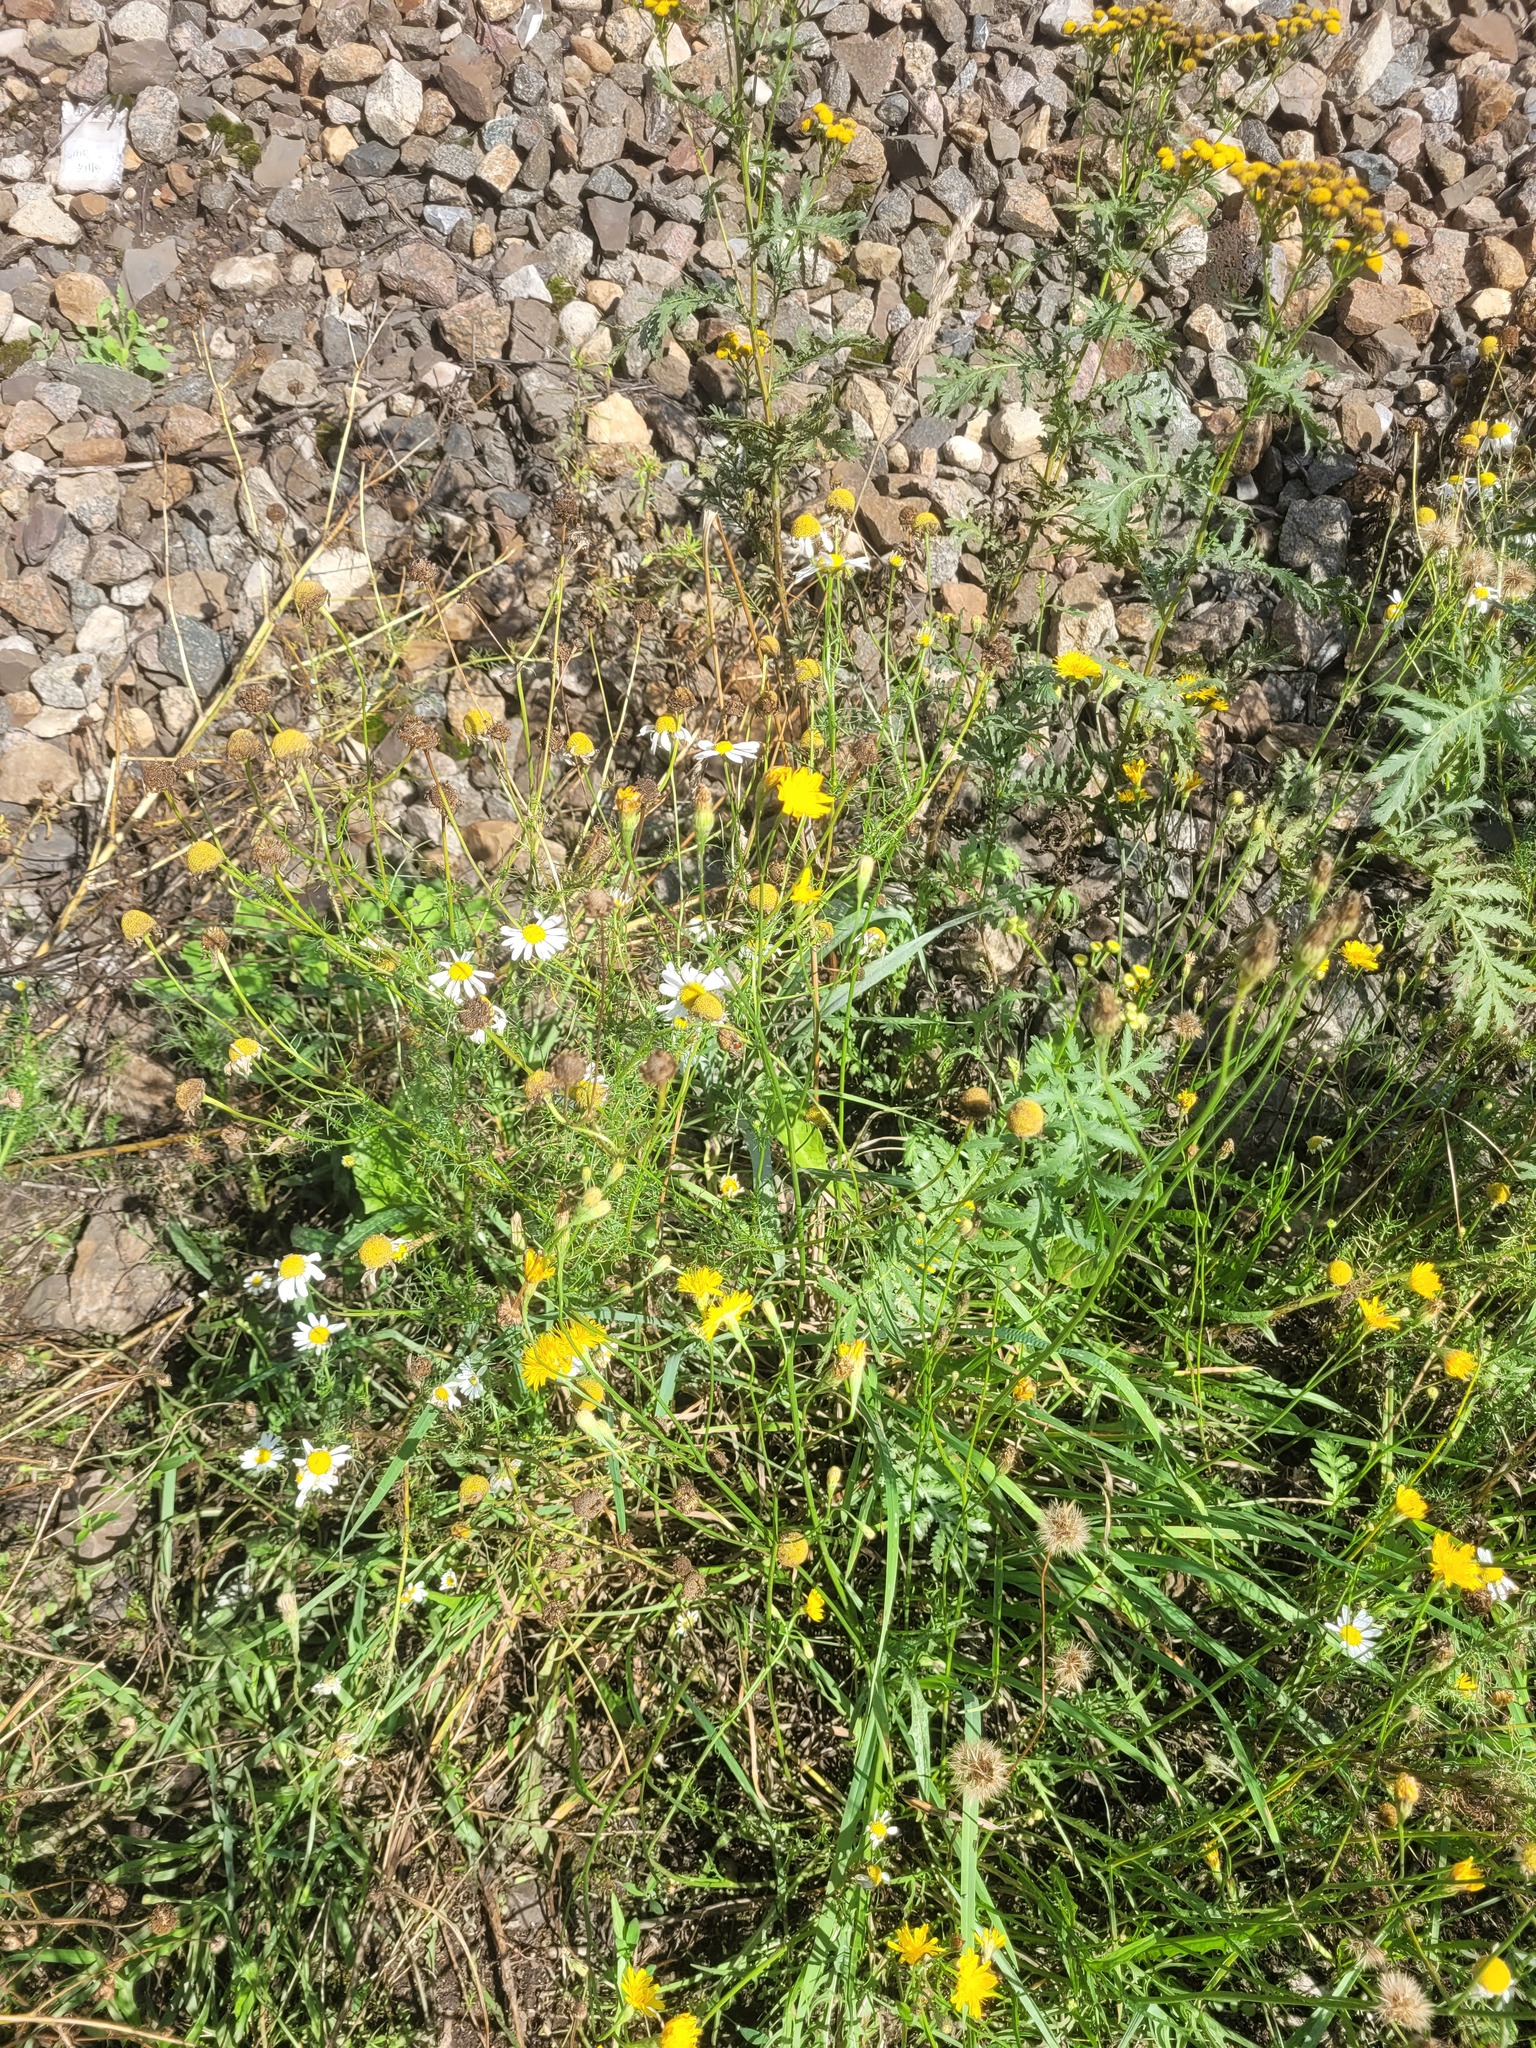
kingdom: Plantae
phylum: Tracheophyta
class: Magnoliopsida
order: Asterales
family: Asteraceae
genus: Tripleurospermum
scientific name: Tripleurospermum inodorum
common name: Scentless mayweed
